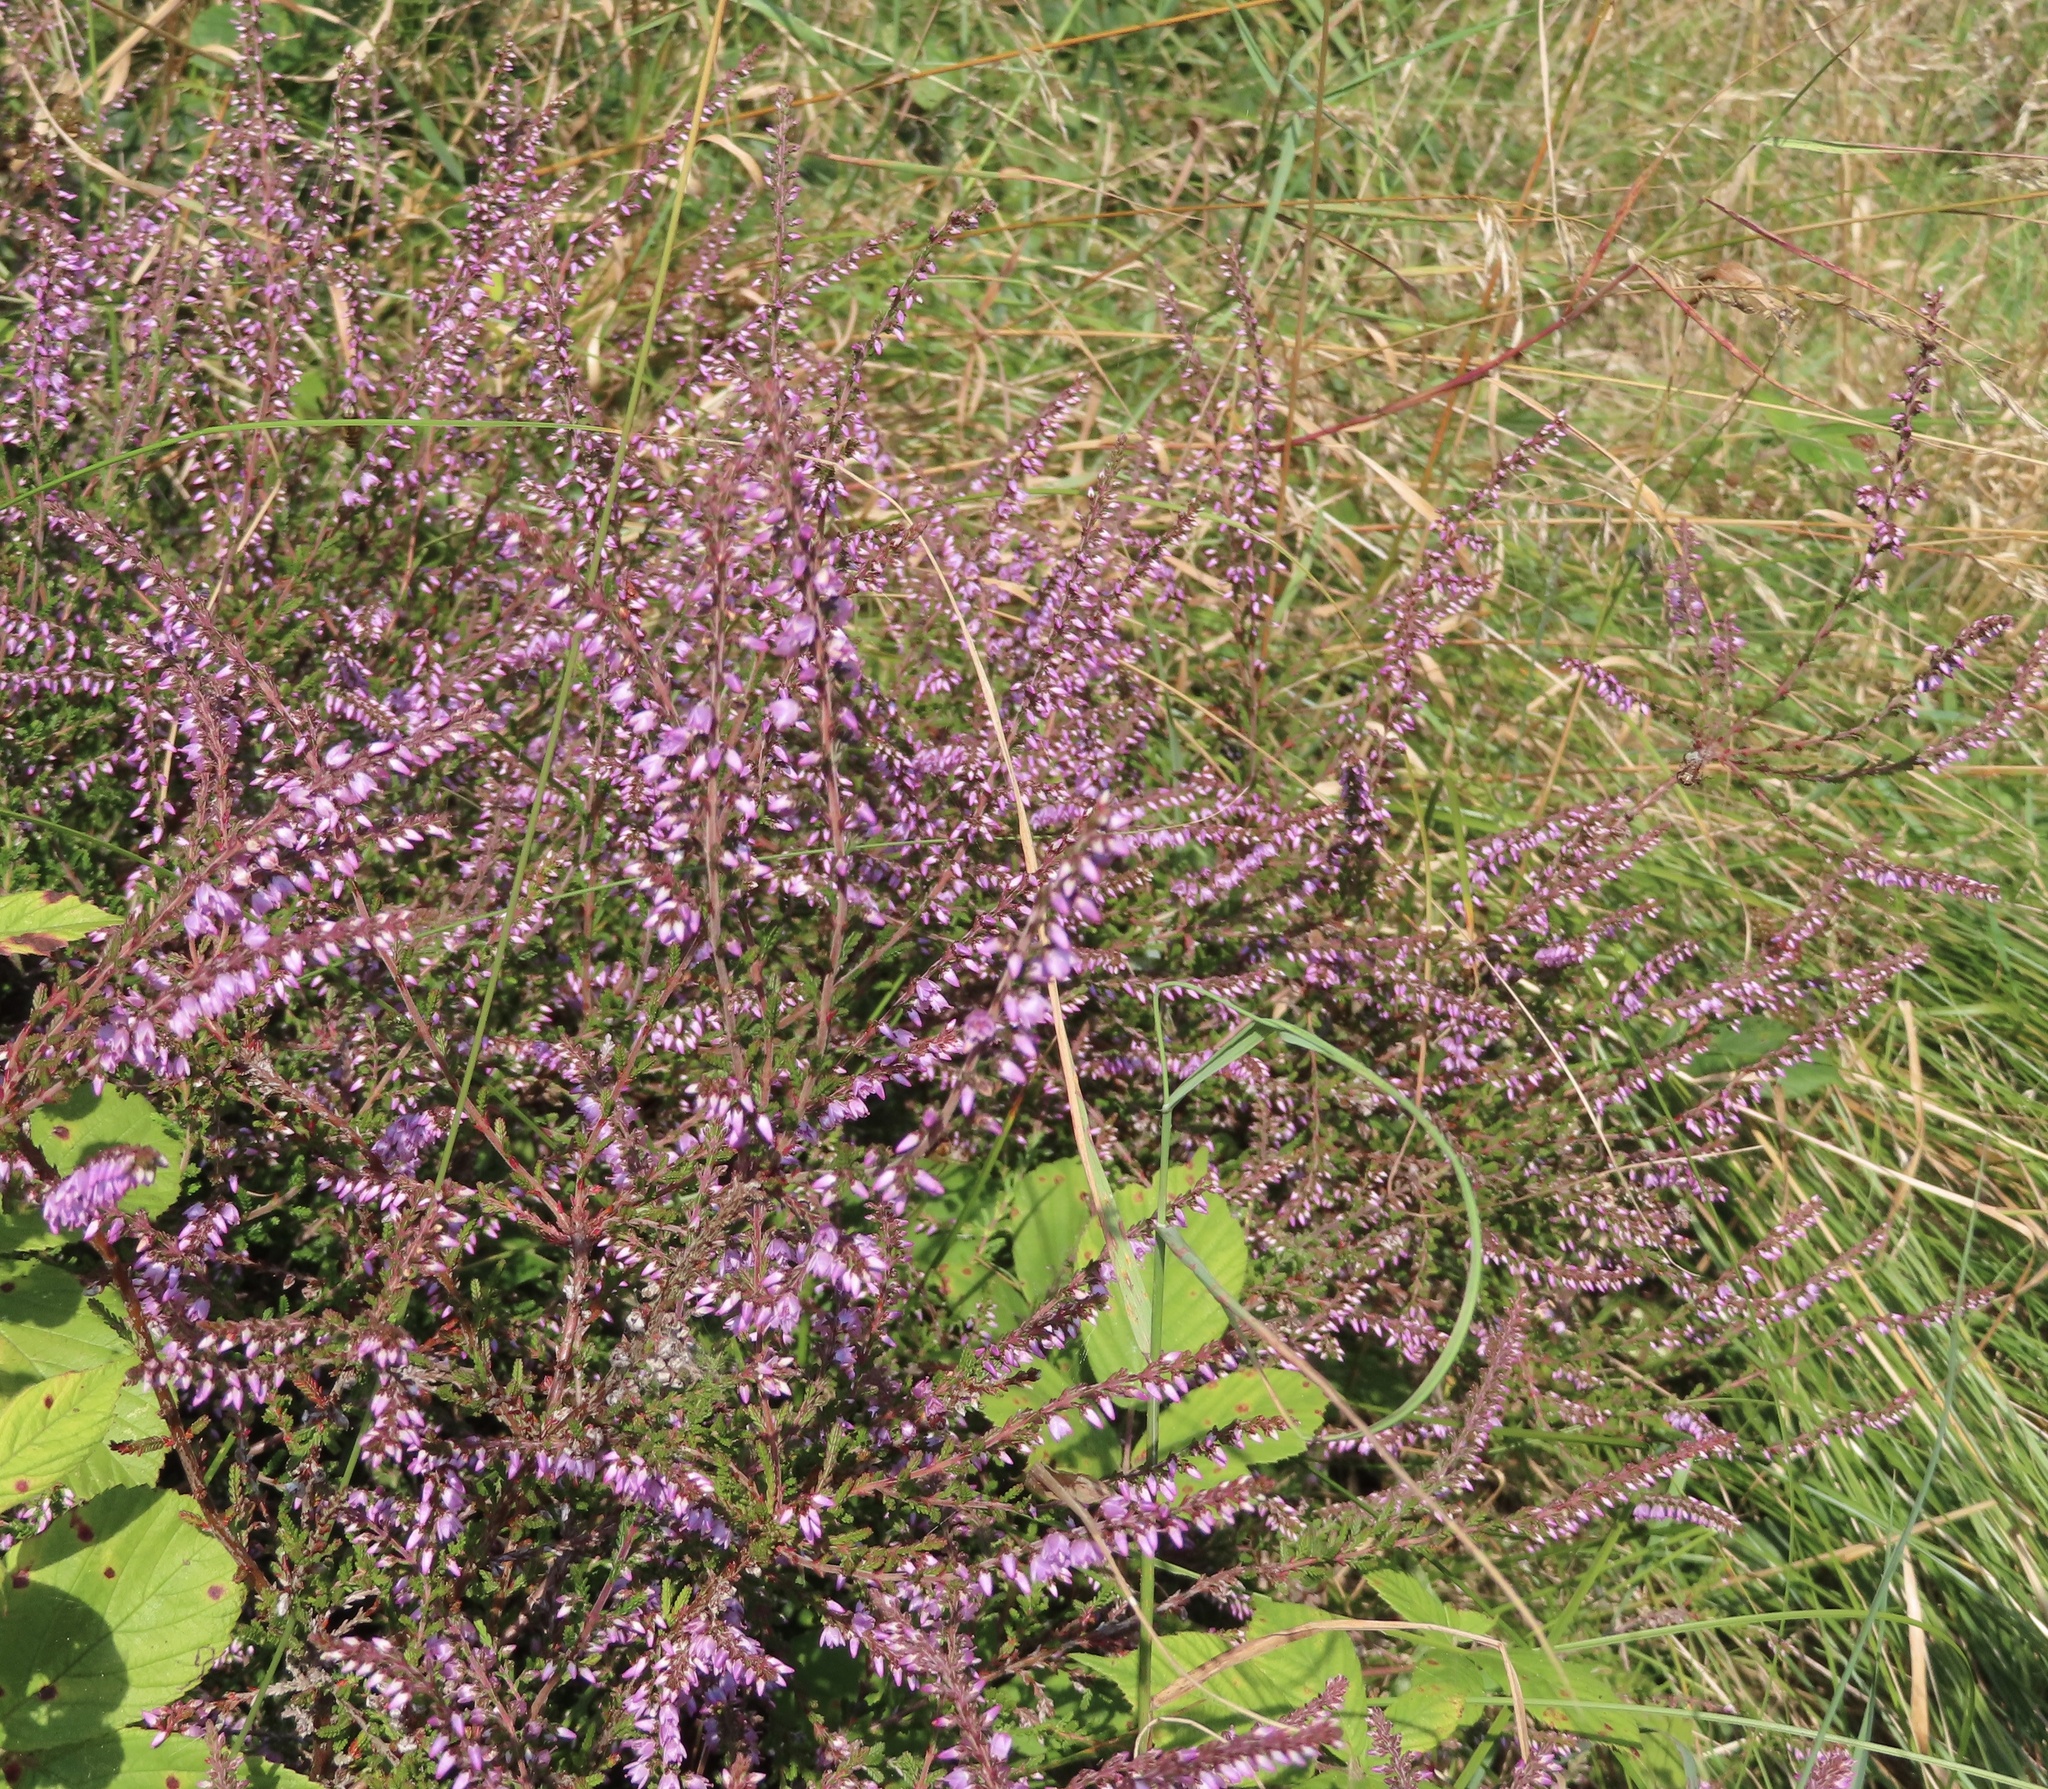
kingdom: Plantae
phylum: Tracheophyta
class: Magnoliopsida
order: Ericales
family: Ericaceae
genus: Calluna
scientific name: Calluna vulgaris
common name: Heather
